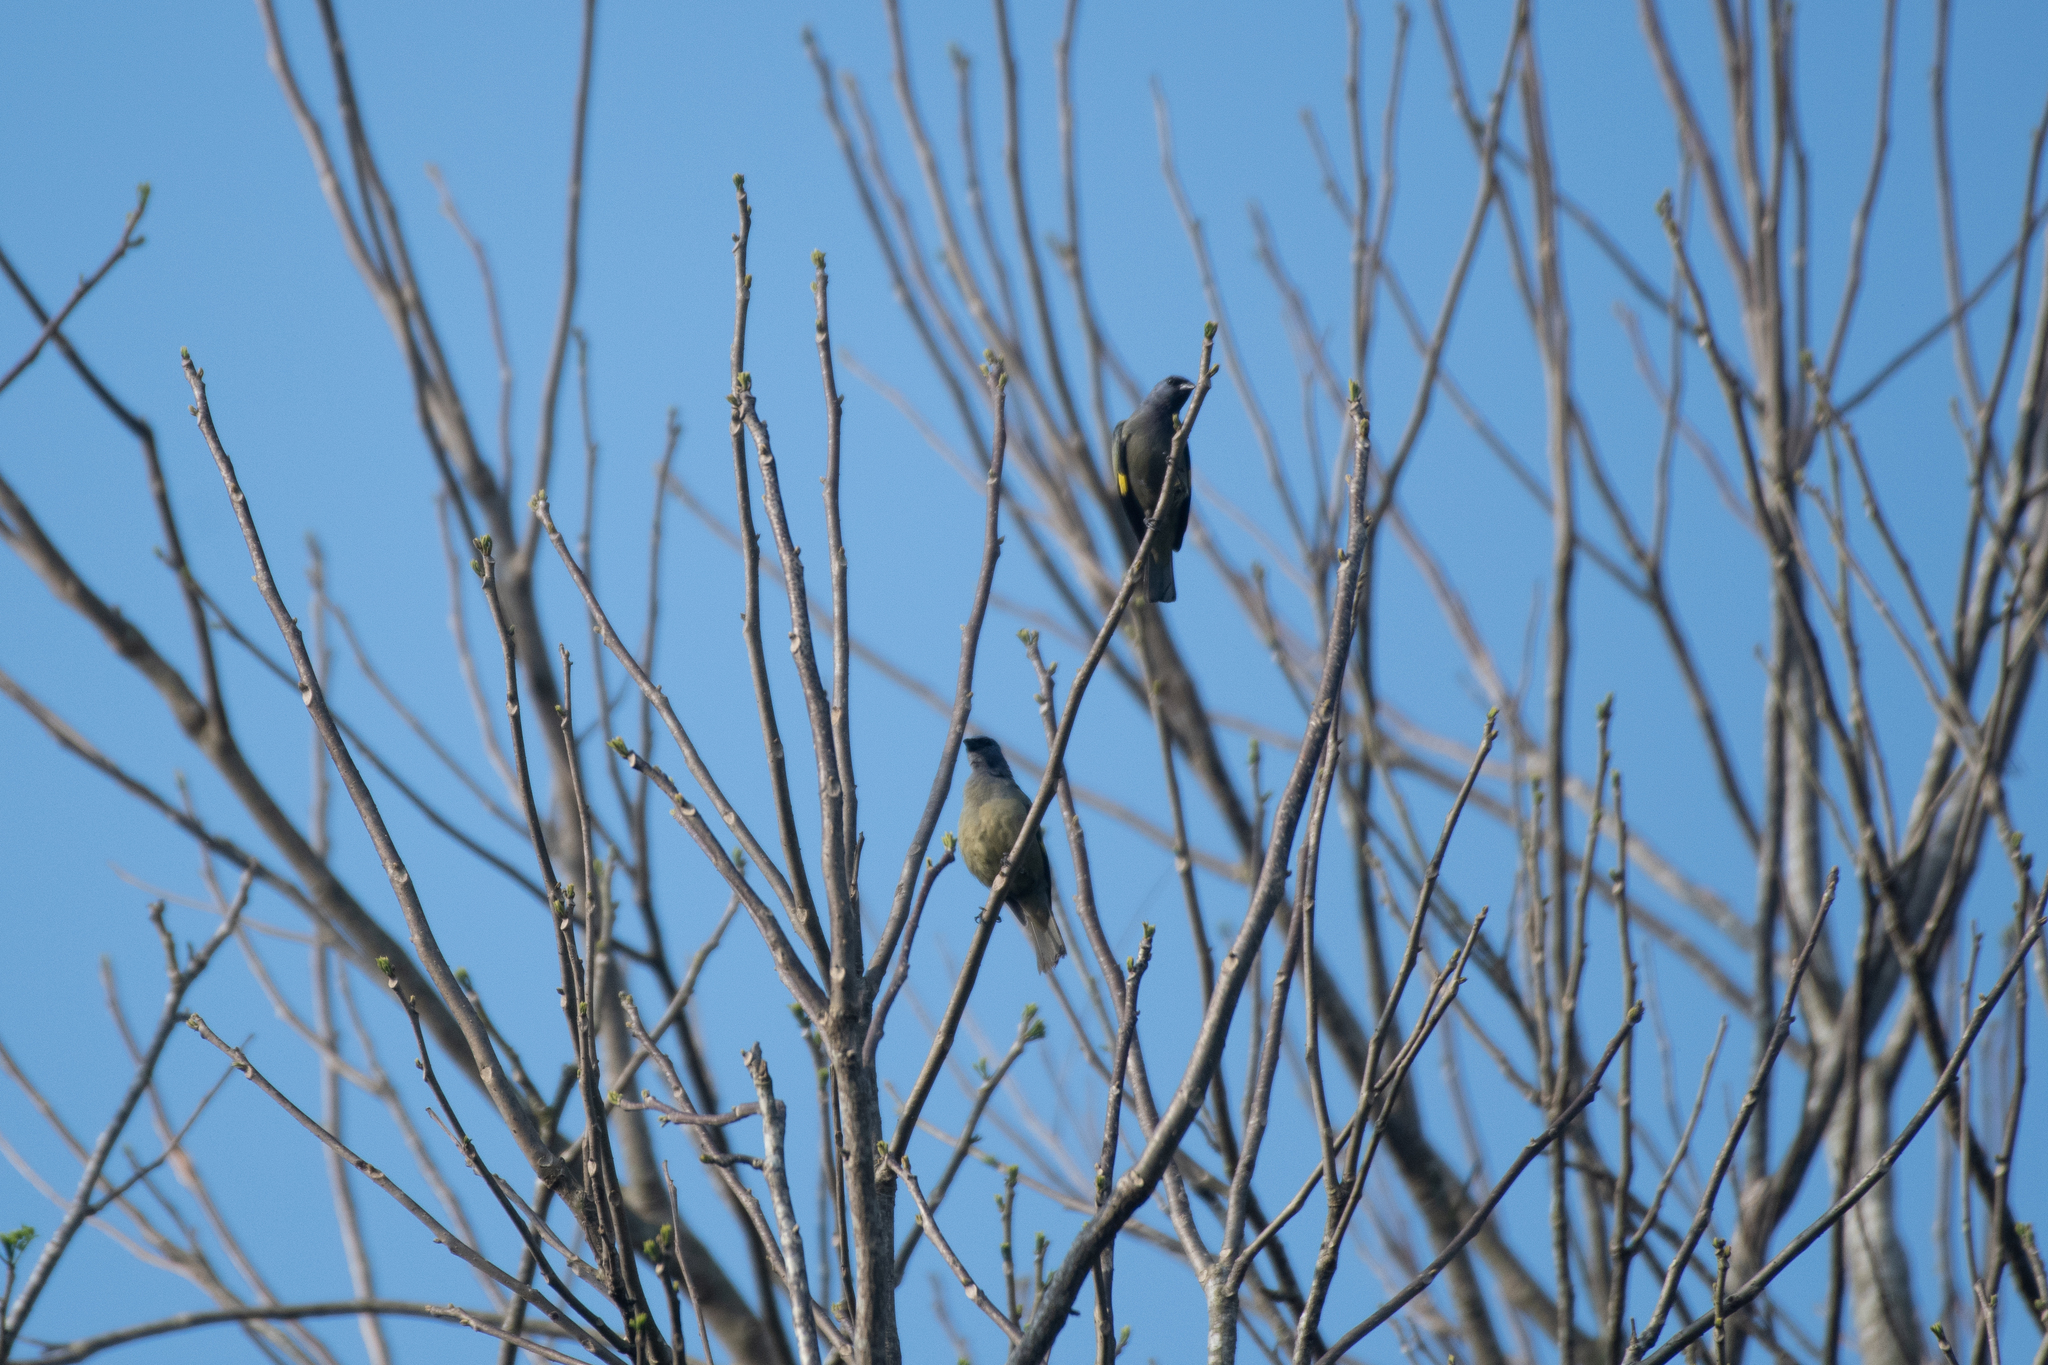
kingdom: Animalia
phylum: Chordata
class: Aves
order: Passeriformes
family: Thraupidae
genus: Thraupis
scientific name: Thraupis abbas
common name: Yellow-winged tanager
